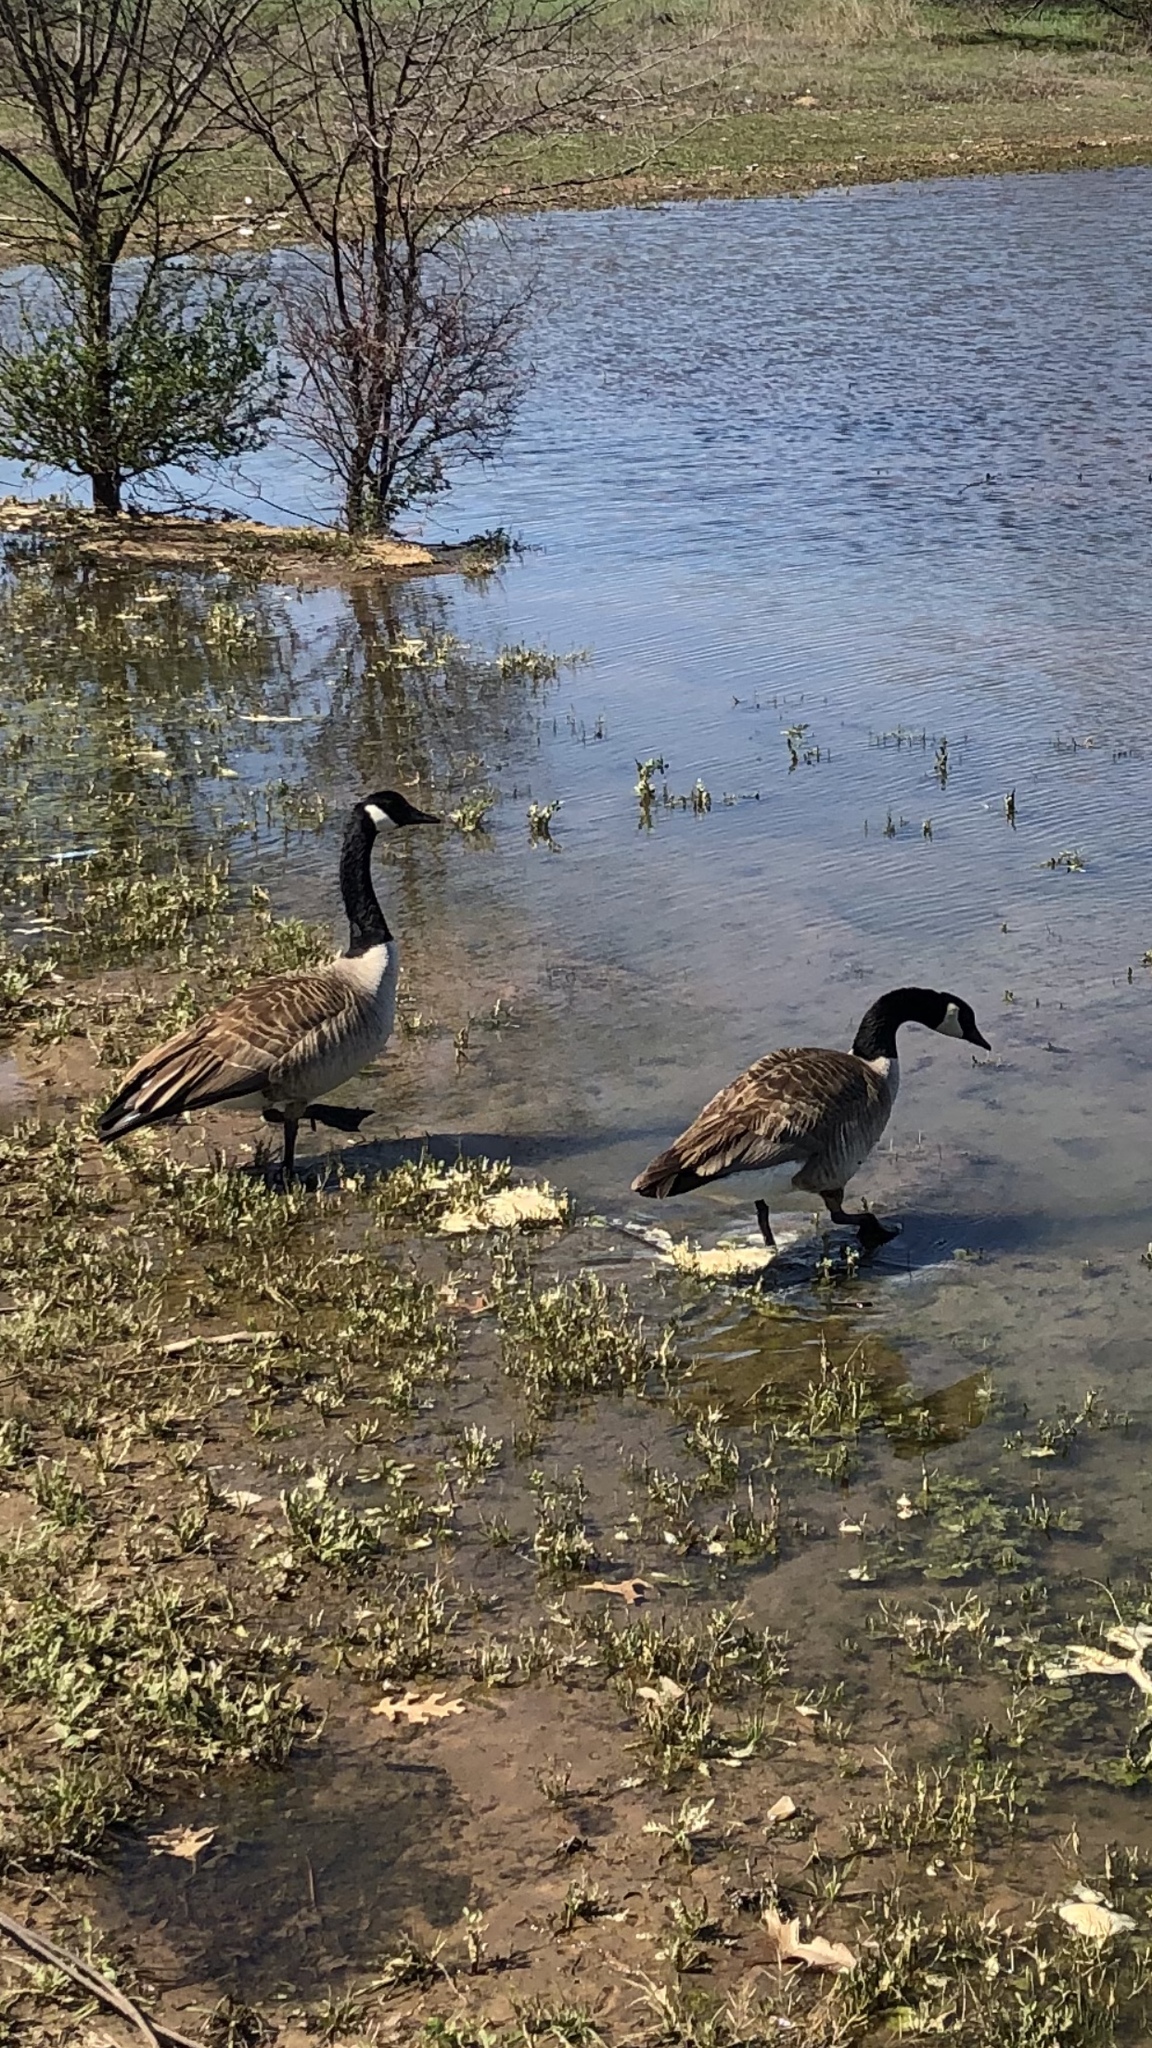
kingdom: Animalia
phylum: Chordata
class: Aves
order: Anseriformes
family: Anatidae
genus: Branta
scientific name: Branta canadensis
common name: Canada goose
